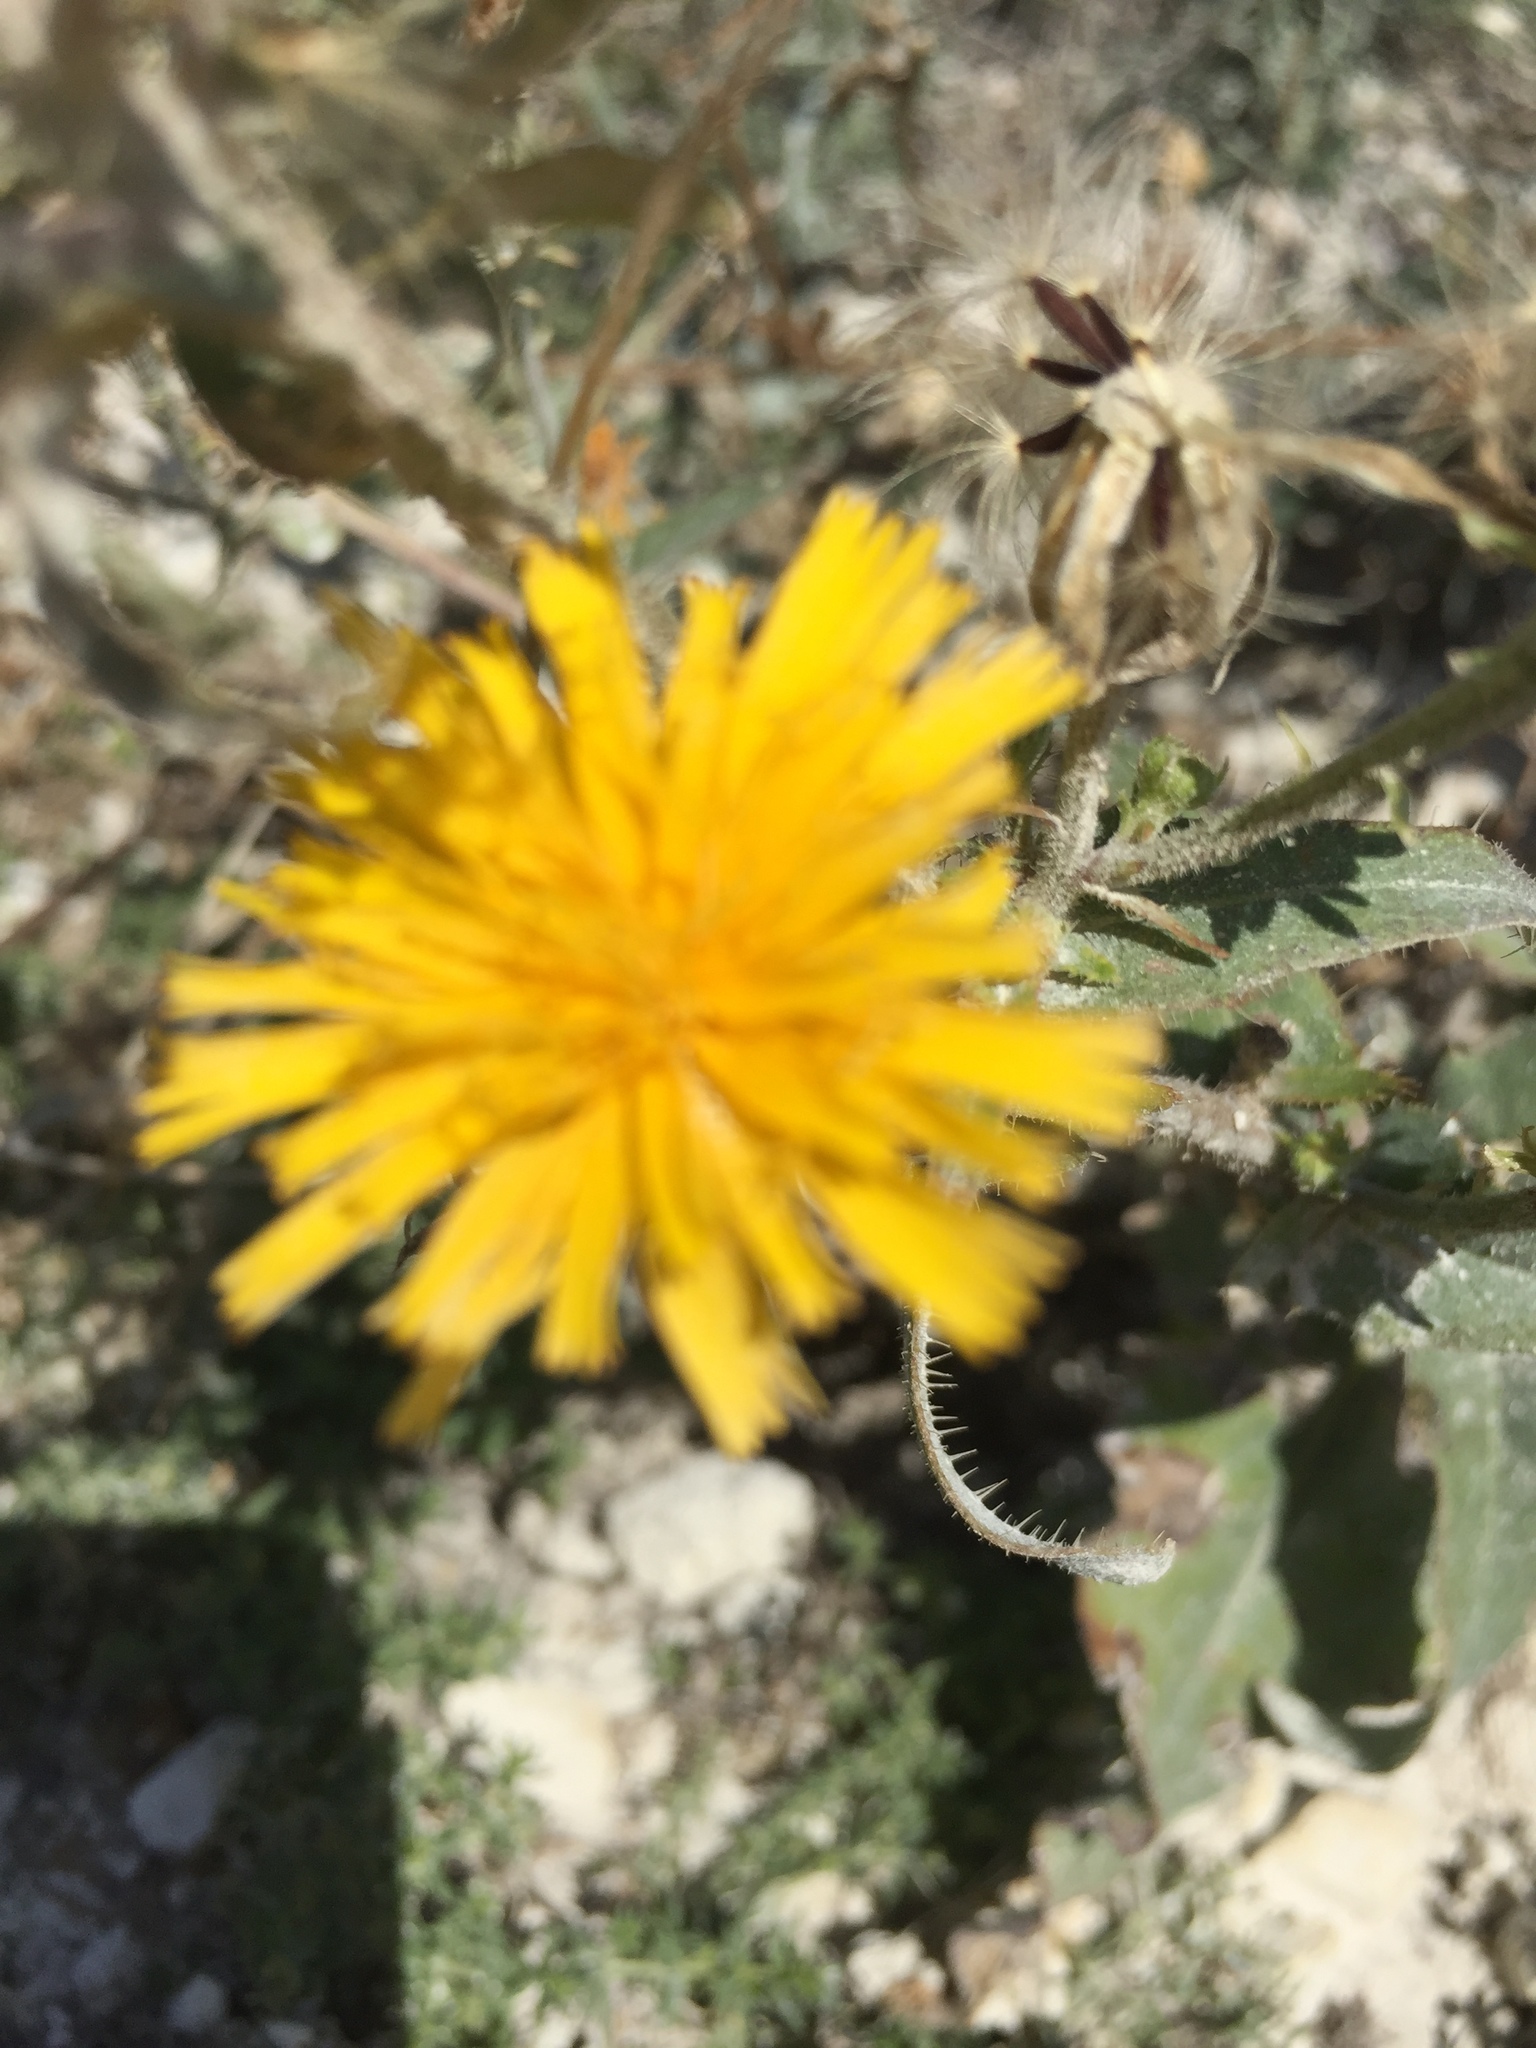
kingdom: Plantae
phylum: Tracheophyta
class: Magnoliopsida
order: Asterales
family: Asteraceae
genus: Taraxacum
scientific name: Taraxacum serotinum
